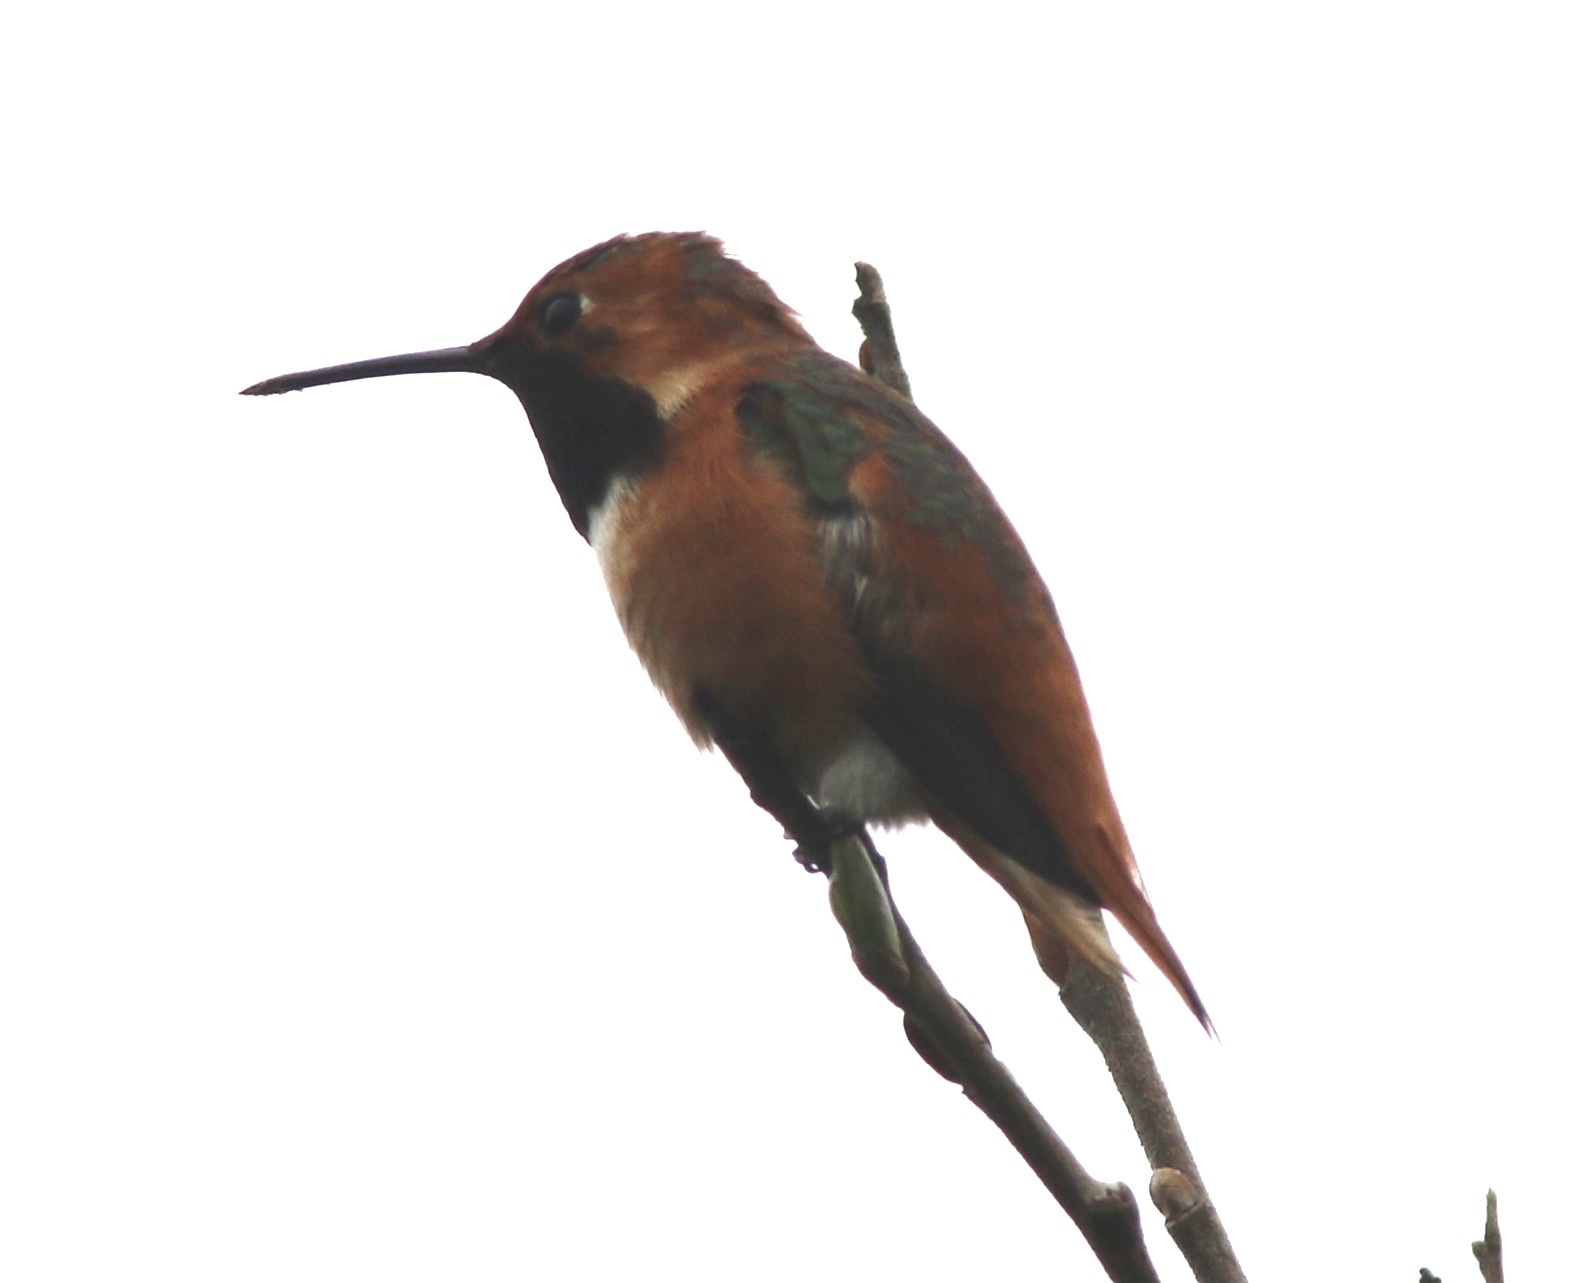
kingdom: Animalia
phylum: Chordata
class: Aves
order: Apodiformes
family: Trochilidae
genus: Selasphorus
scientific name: Selasphorus sasin
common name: Allen's hummingbird
